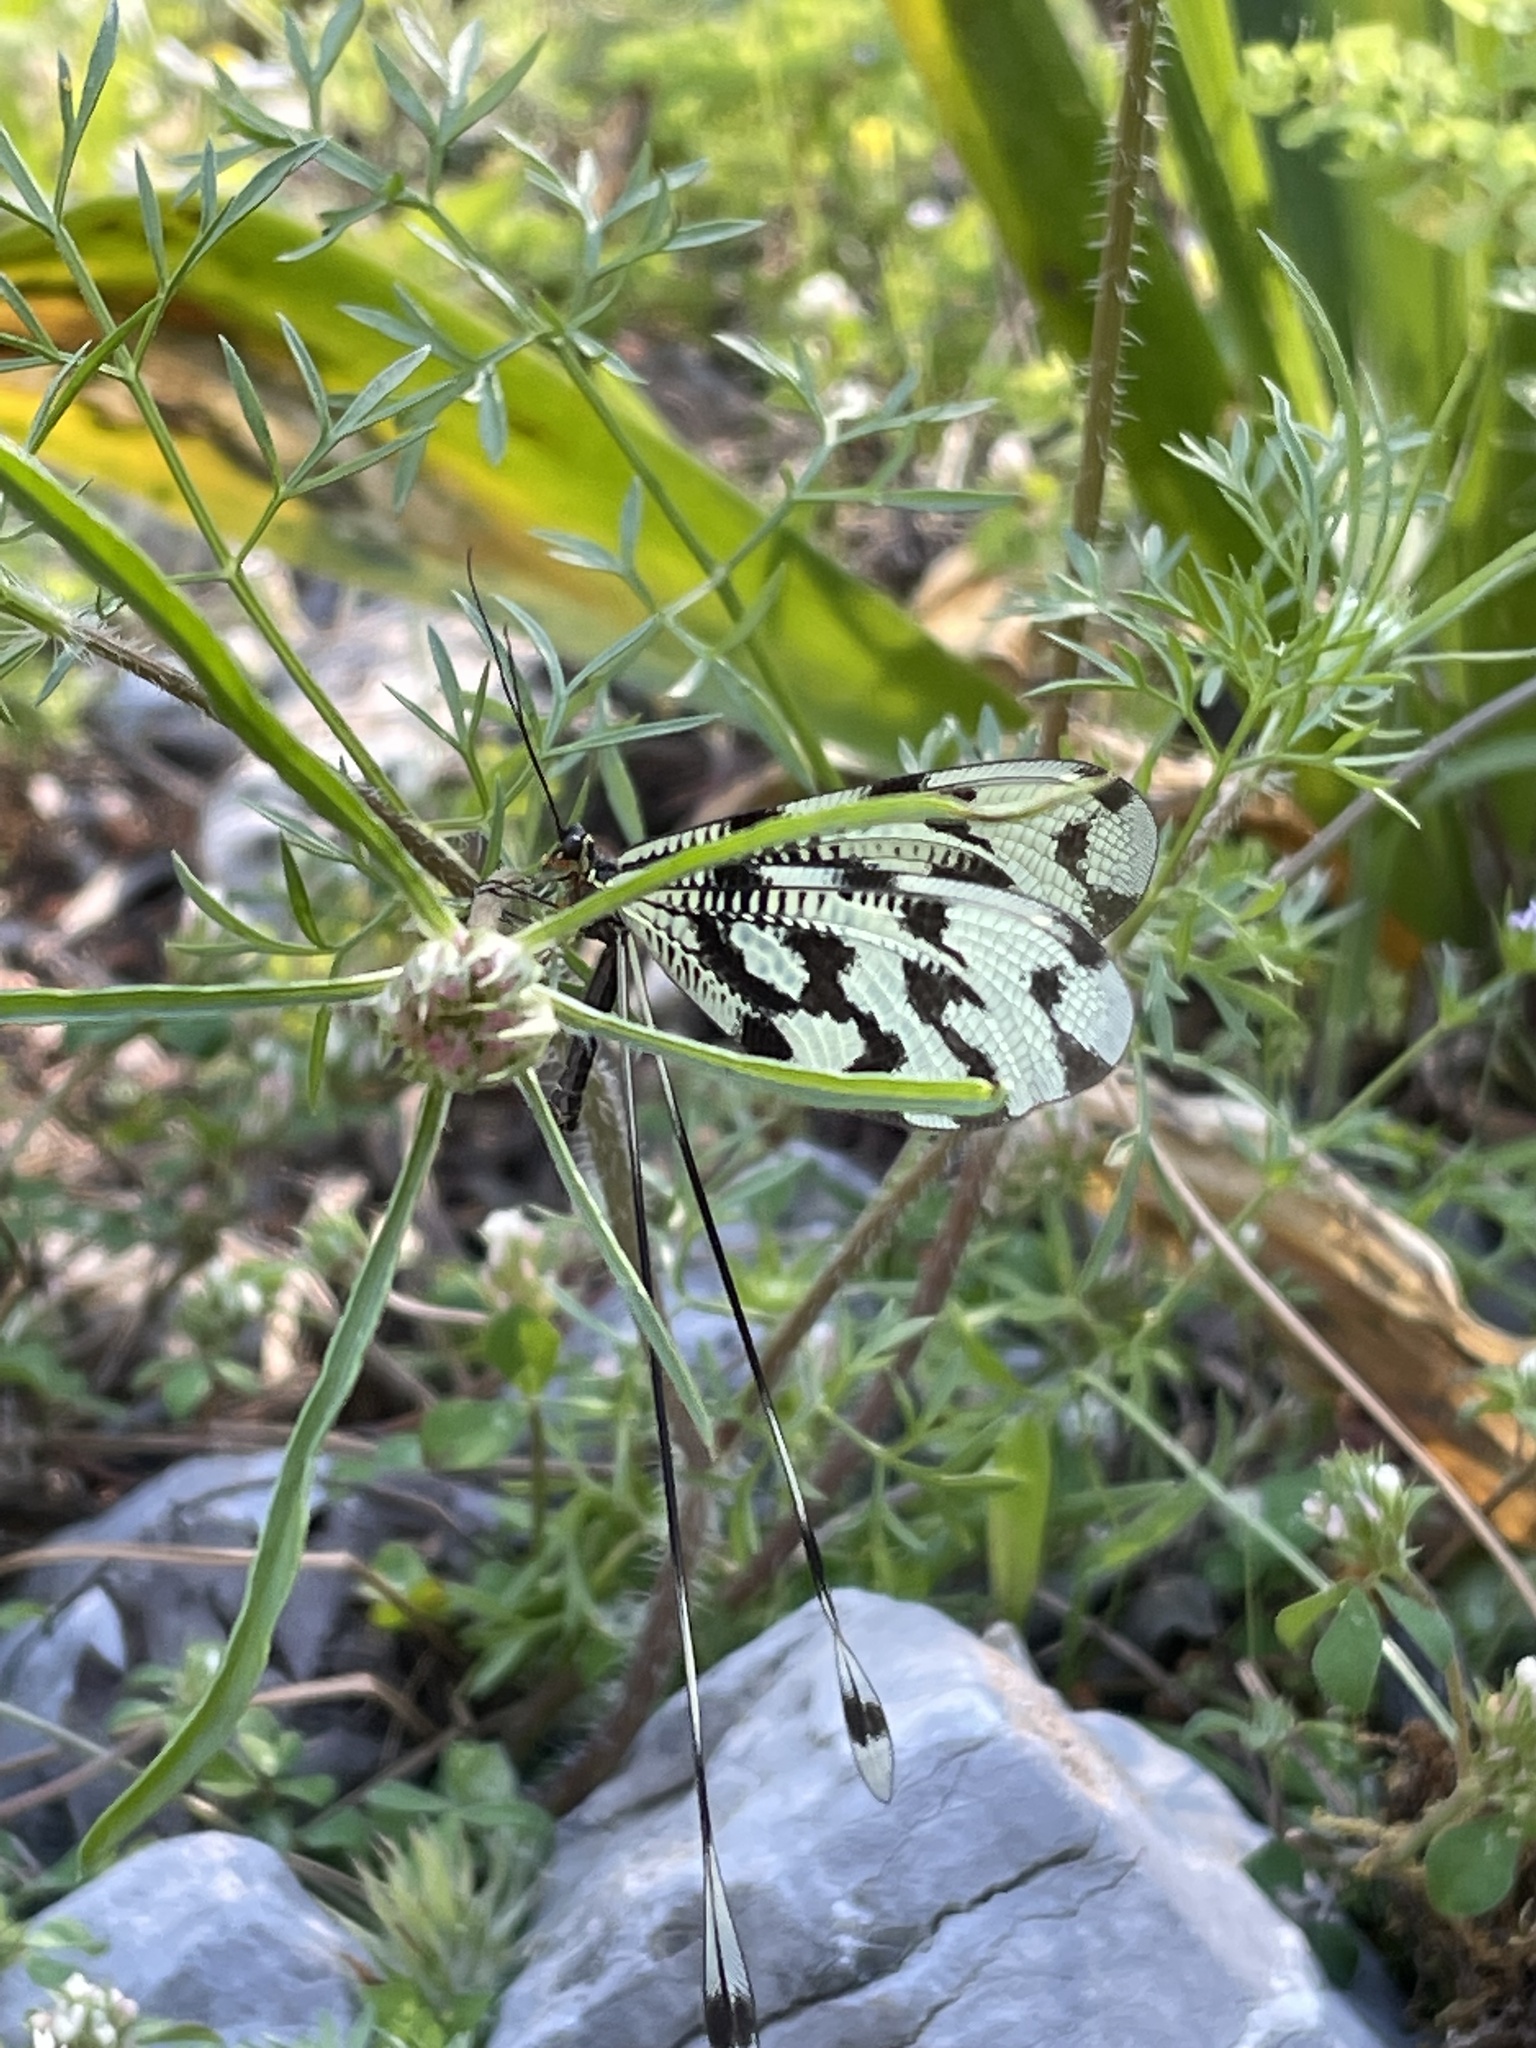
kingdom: Animalia
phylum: Arthropoda
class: Insecta
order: Neuroptera
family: Nemopteridae
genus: Nemoptera
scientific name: Nemoptera sinuata
